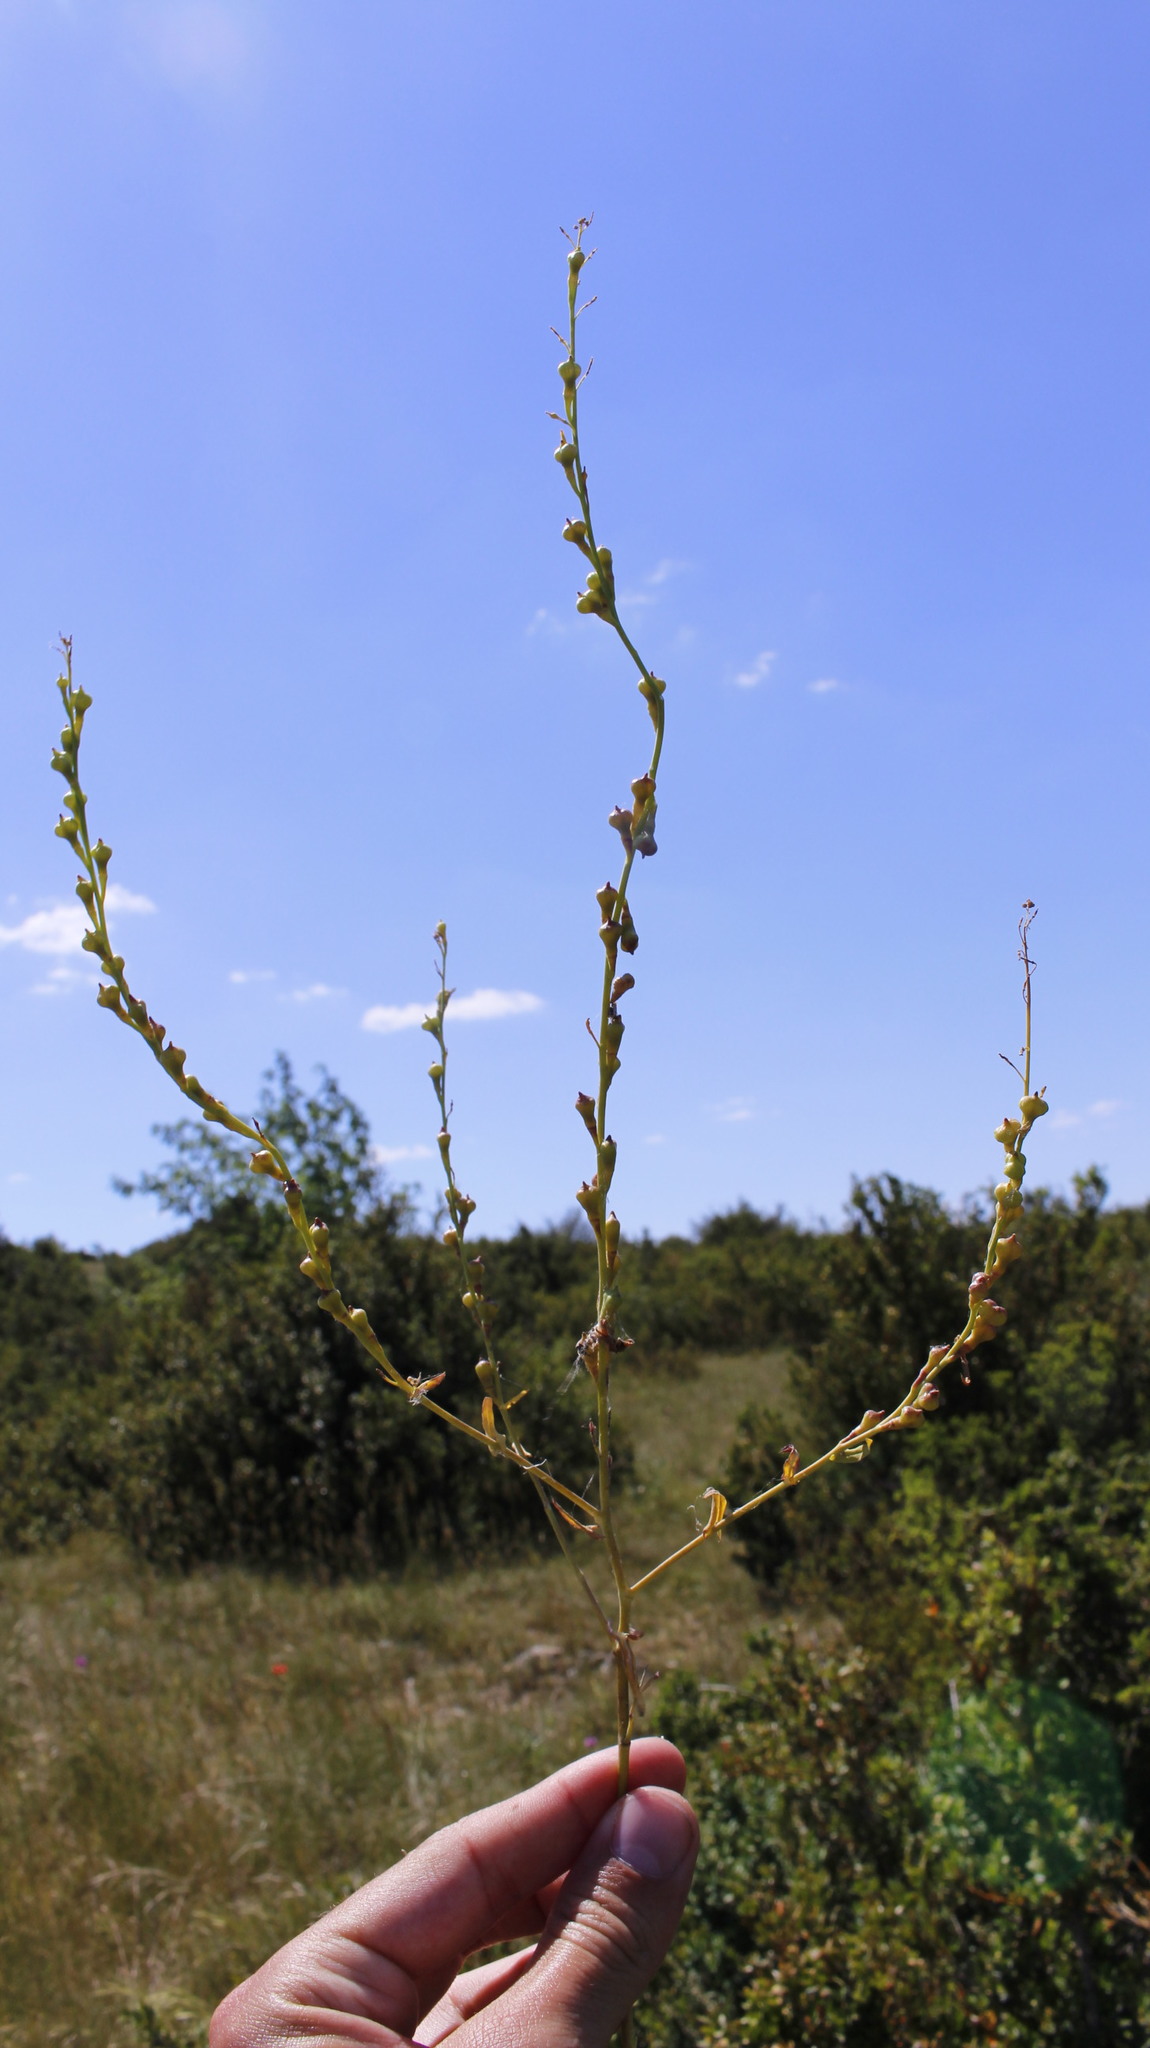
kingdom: Plantae
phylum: Tracheophyta
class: Magnoliopsida
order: Brassicales
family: Brassicaceae
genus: Myagrum
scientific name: Myagrum perfoliatum
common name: Mitre cress
